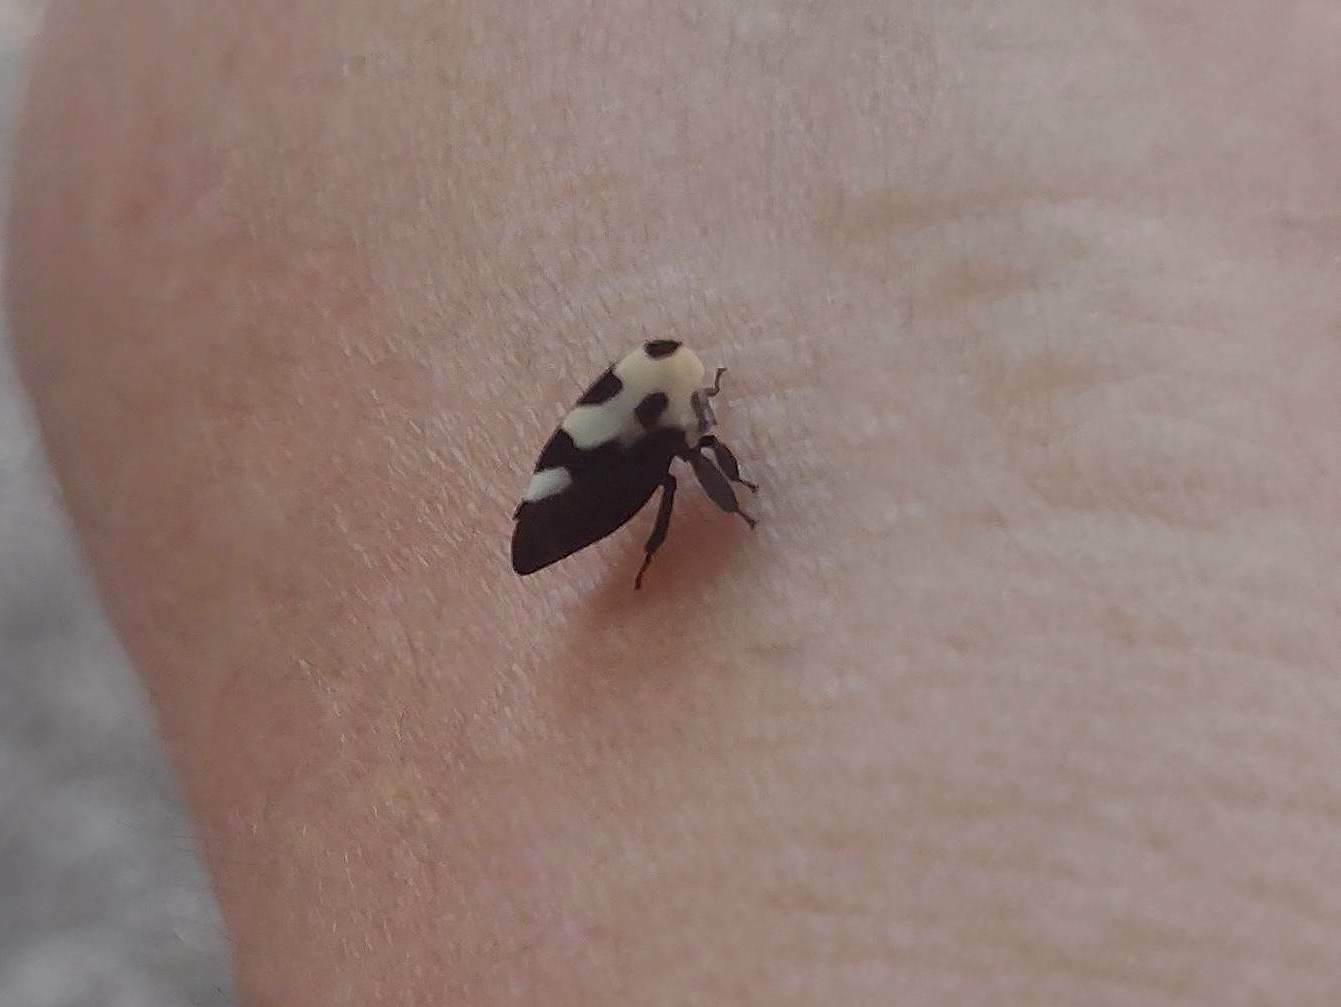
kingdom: Animalia
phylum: Arthropoda
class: Insecta
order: Hemiptera
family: Membracidae
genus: Membracis
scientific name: Membracis mexicana
